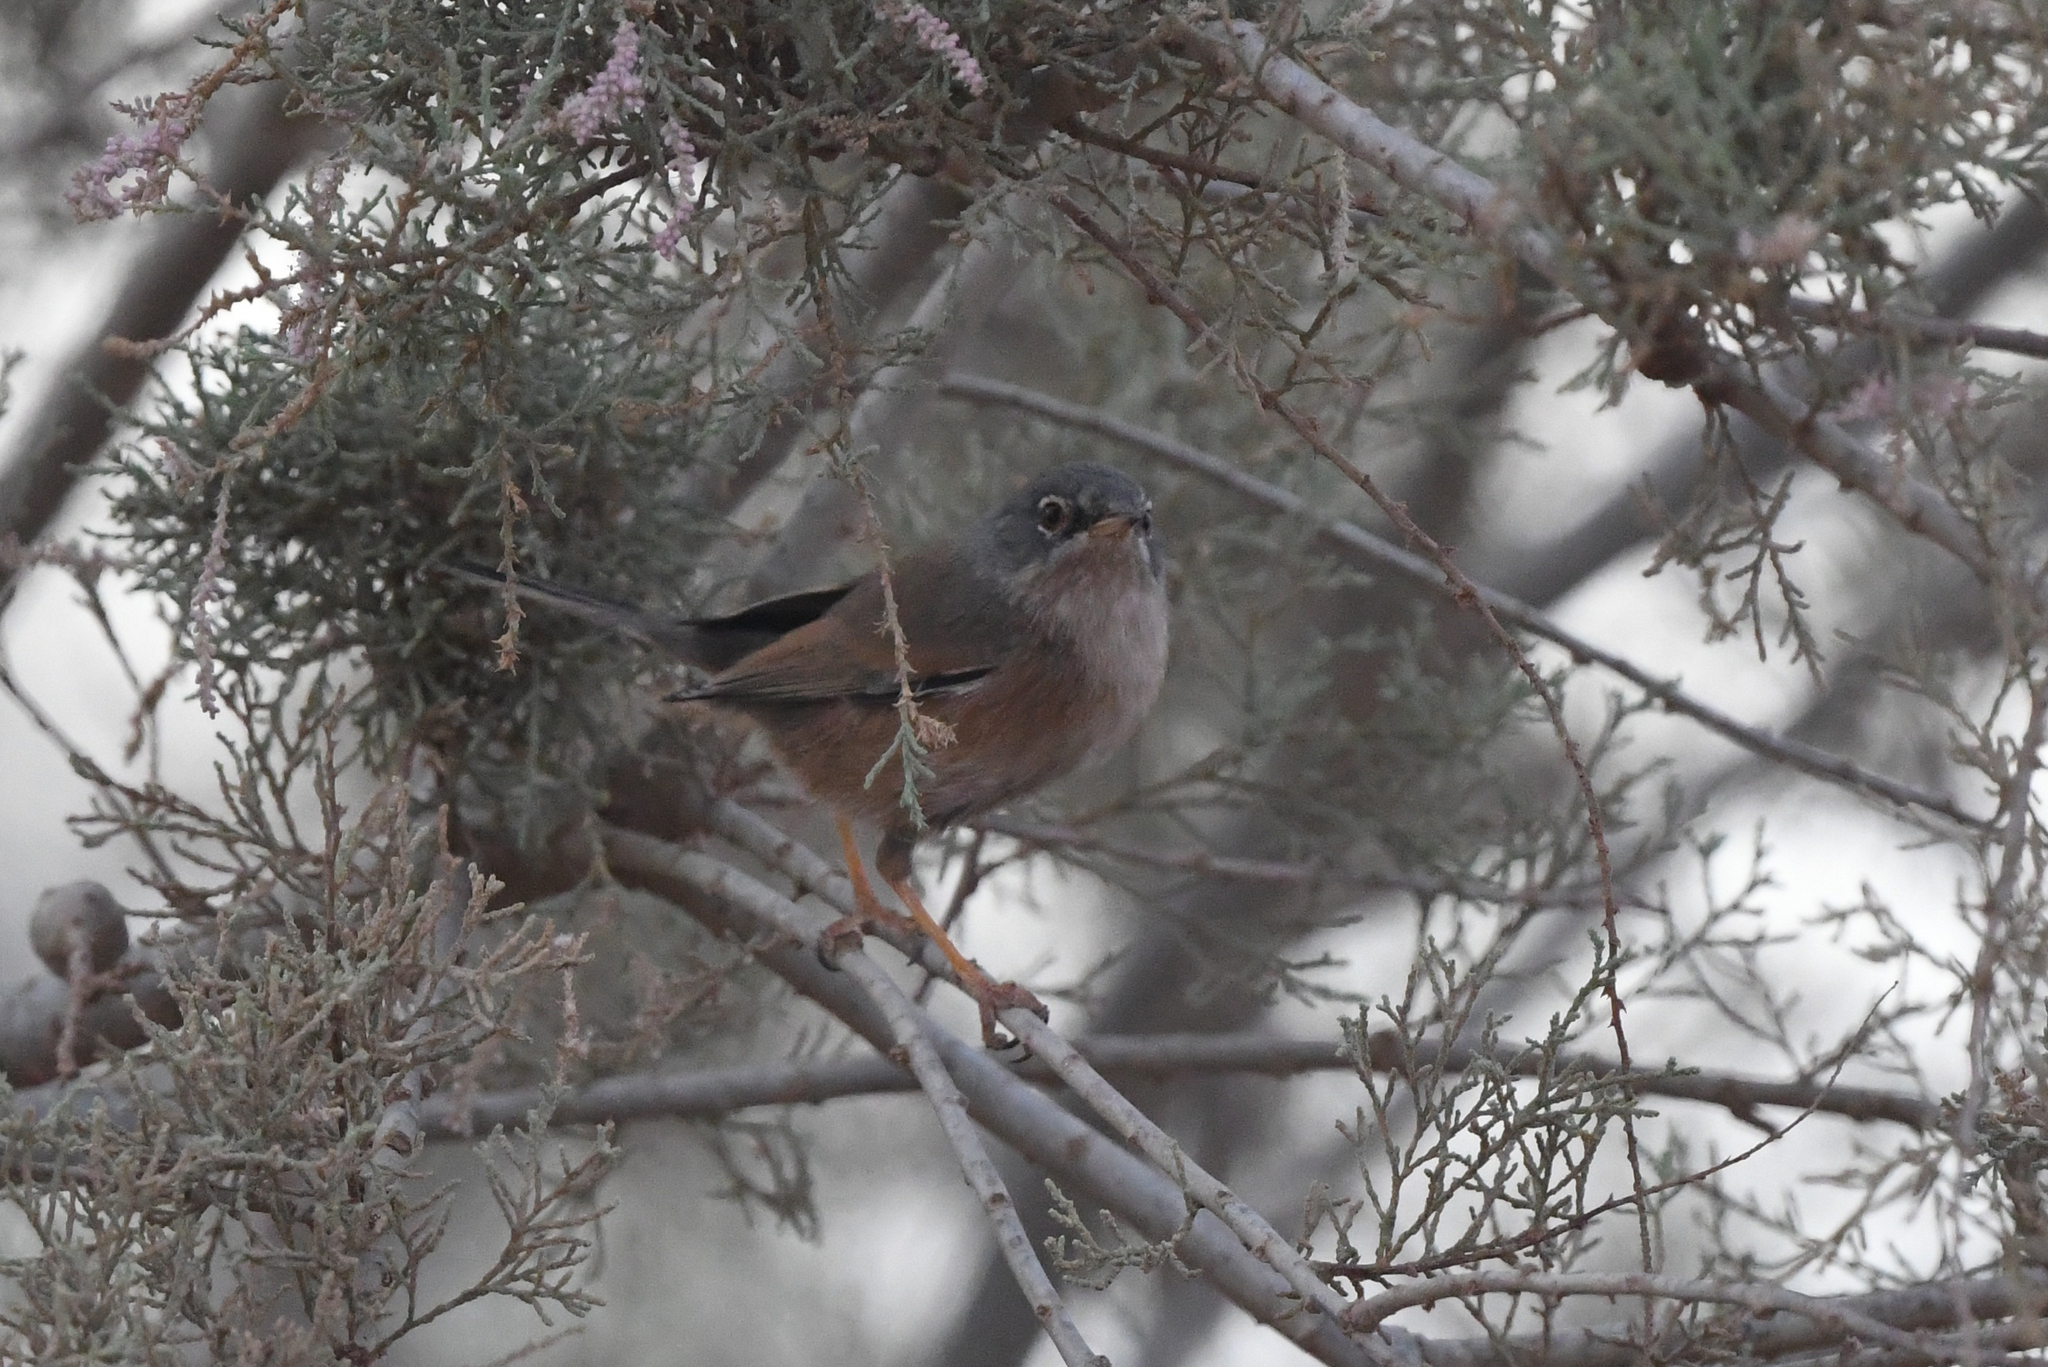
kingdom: Animalia
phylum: Chordata
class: Aves
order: Passeriformes
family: Sylviidae
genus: Sylvia
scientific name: Sylvia deserticola
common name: Tristram's warbler
